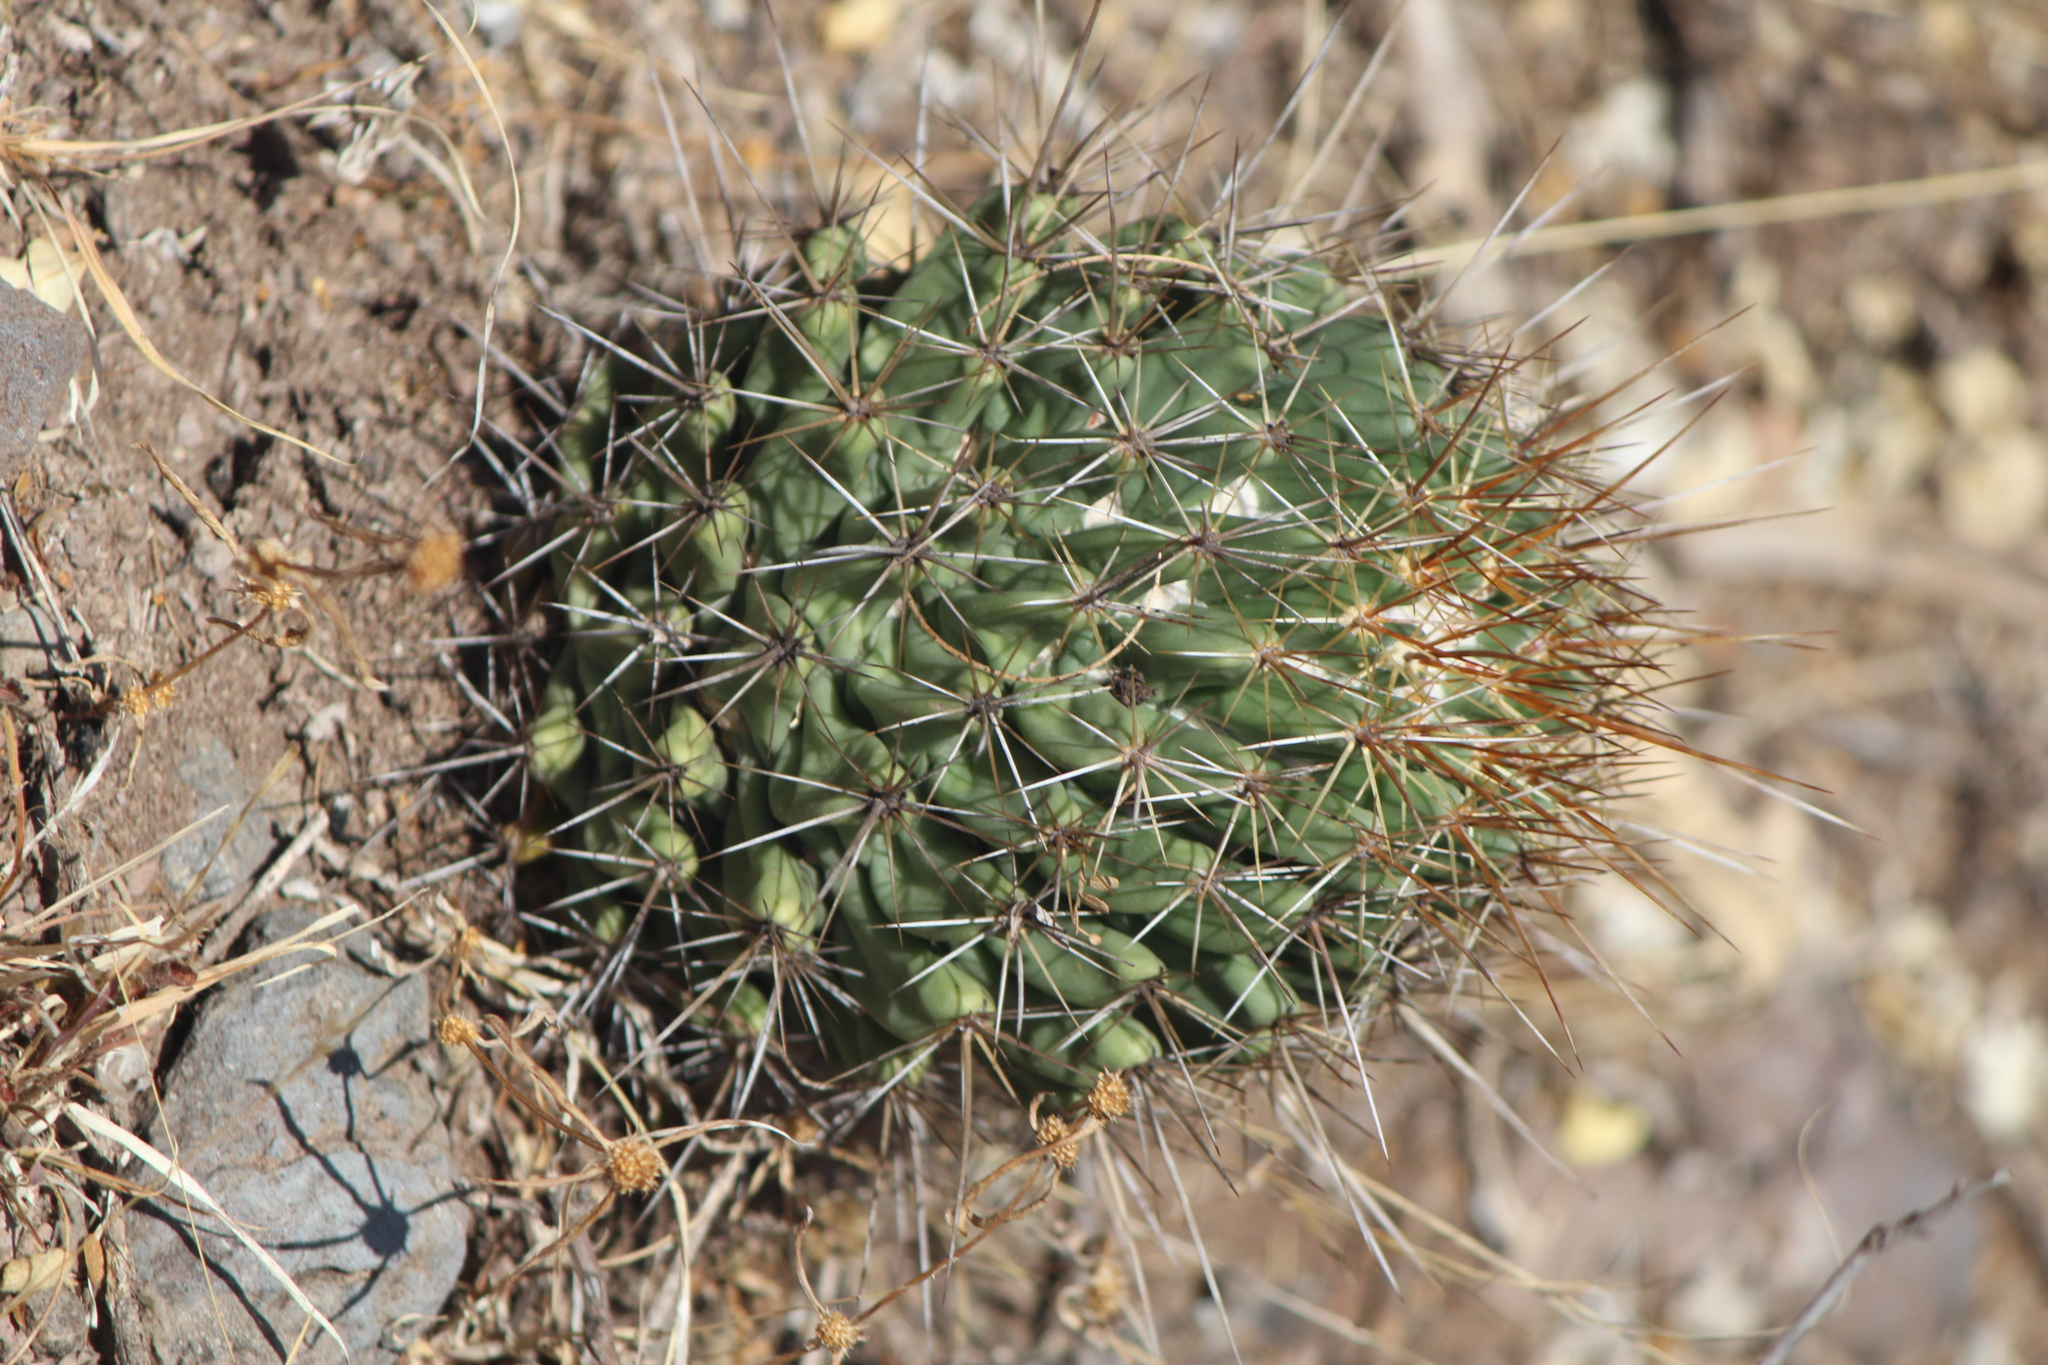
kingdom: Plantae
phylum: Tracheophyta
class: Magnoliopsida
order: Caryophyllales
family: Cactaceae
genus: Coryphantha
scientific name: Coryphantha octacantha
